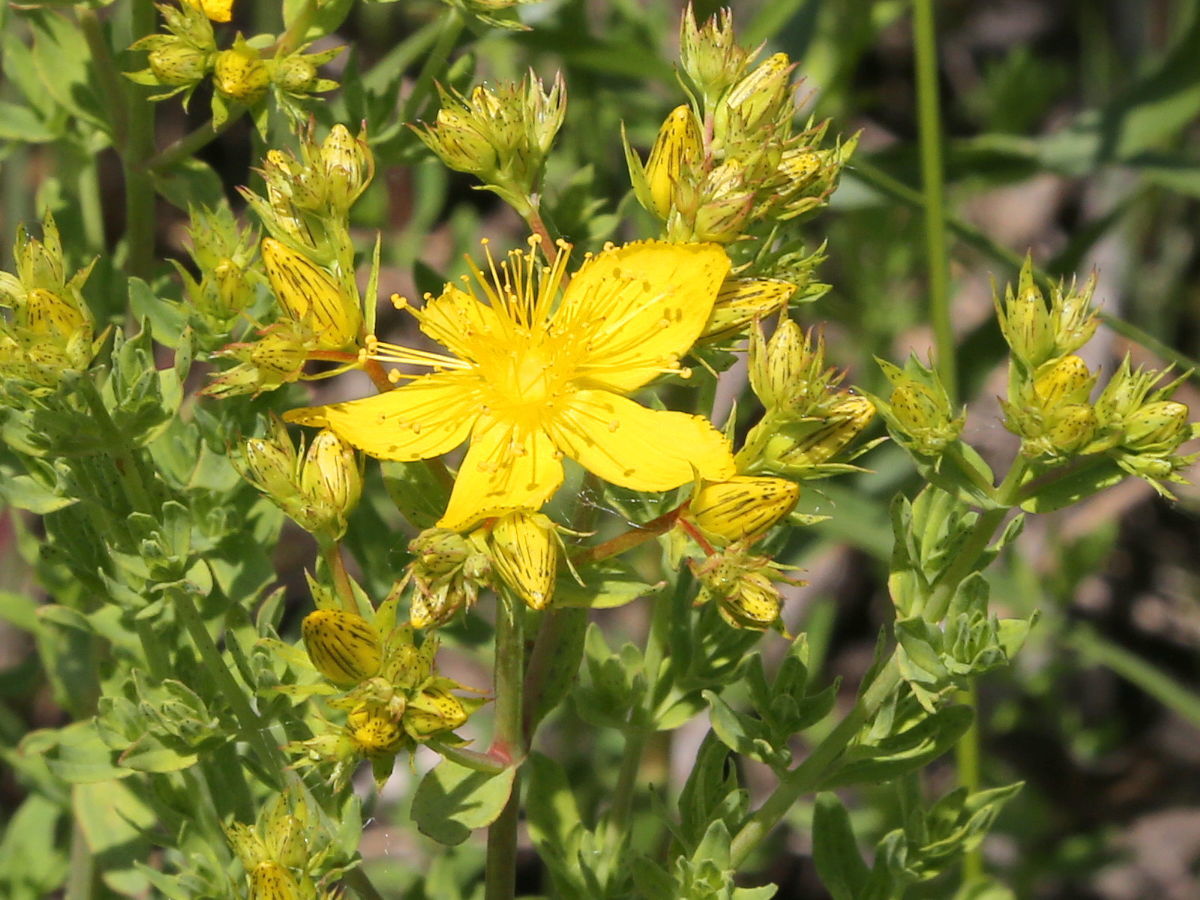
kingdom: Plantae
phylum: Tracheophyta
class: Magnoliopsida
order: Malpighiales
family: Hypericaceae
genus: Hypericum
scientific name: Hypericum perforatum
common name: Common st. johnswort
